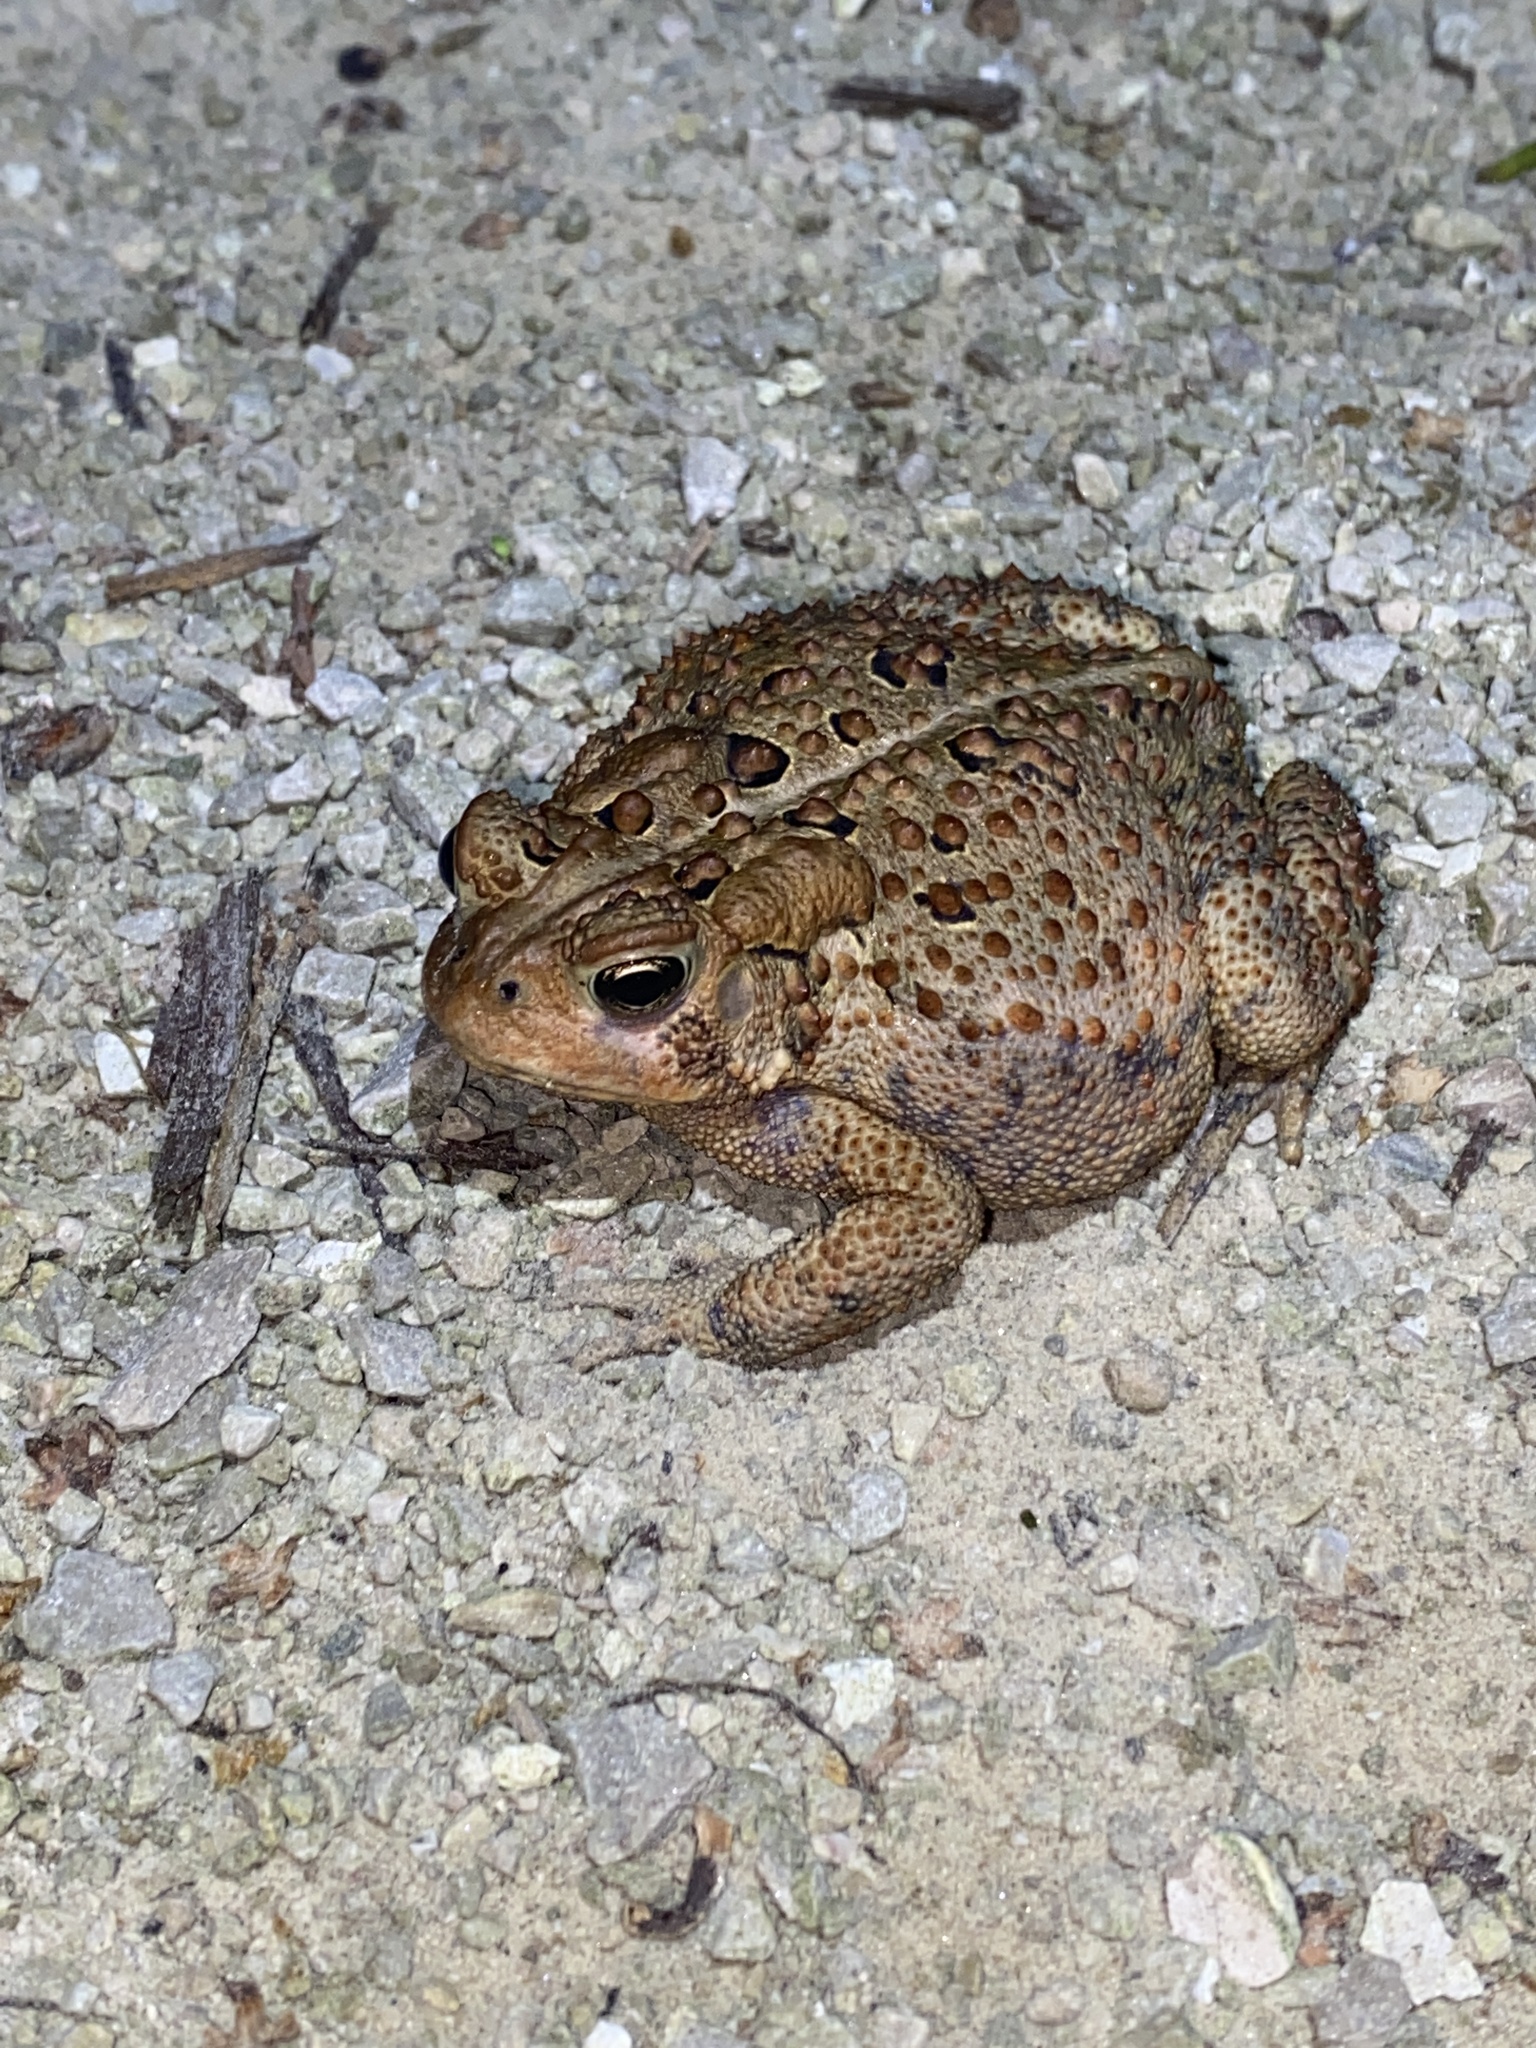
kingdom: Animalia
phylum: Chordata
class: Amphibia
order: Anura
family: Bufonidae
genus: Anaxyrus
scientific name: Anaxyrus americanus
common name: American toad
